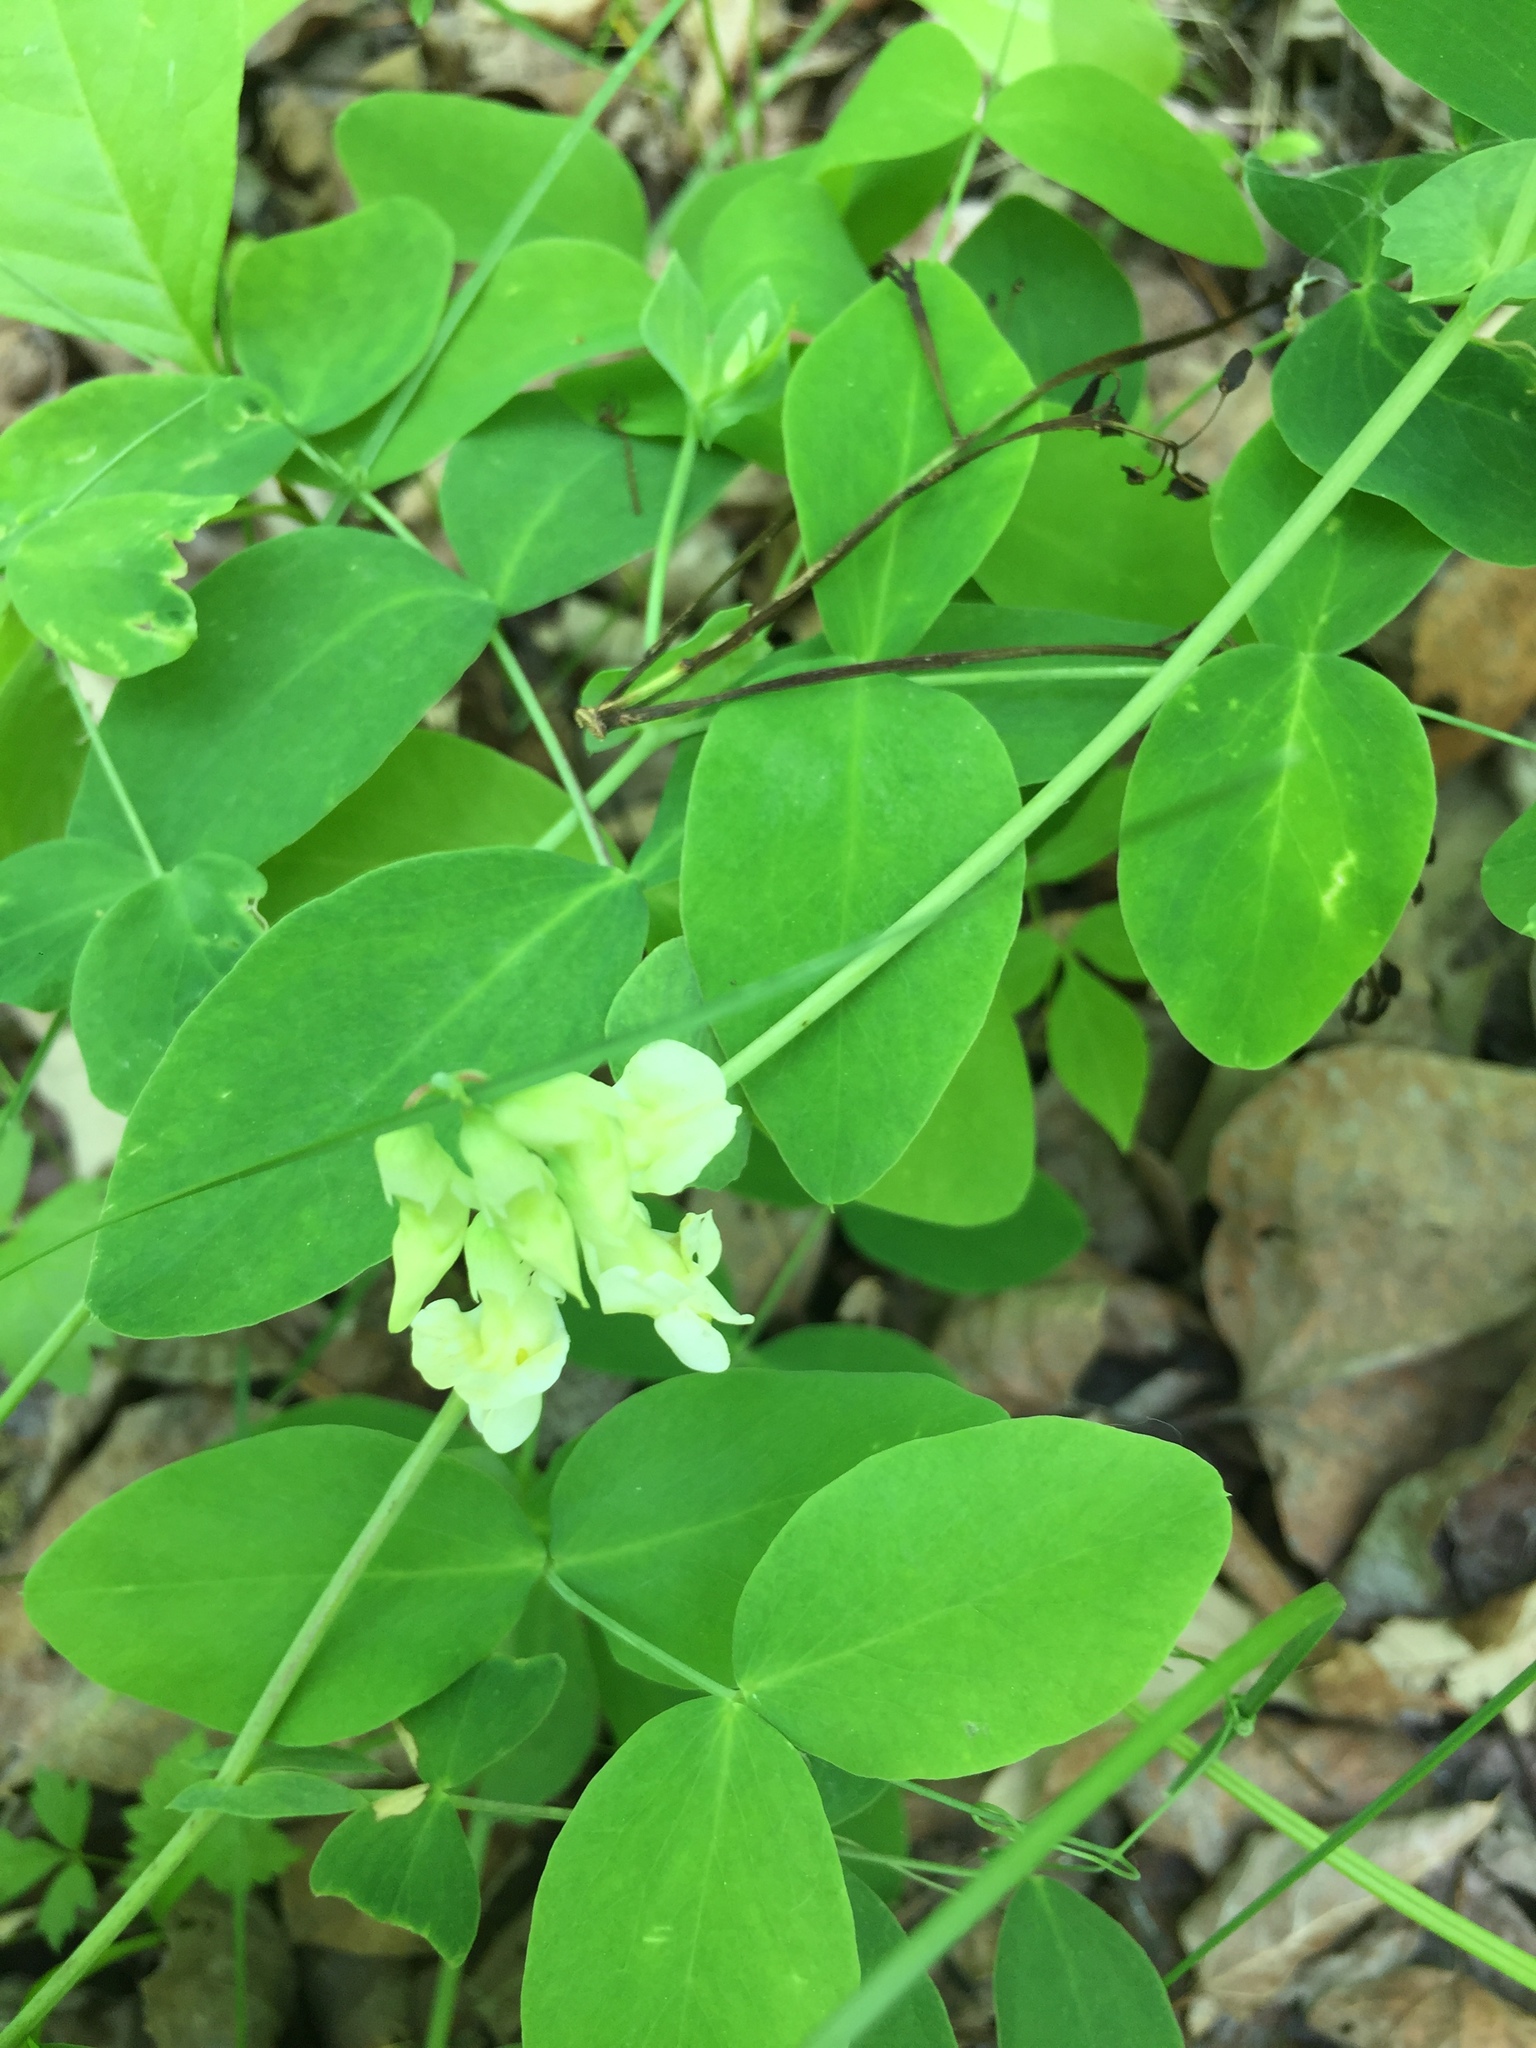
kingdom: Plantae
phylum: Tracheophyta
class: Magnoliopsida
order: Fabales
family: Fabaceae
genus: Lathyrus
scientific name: Lathyrus ochroleucus
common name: Pale vetchling
